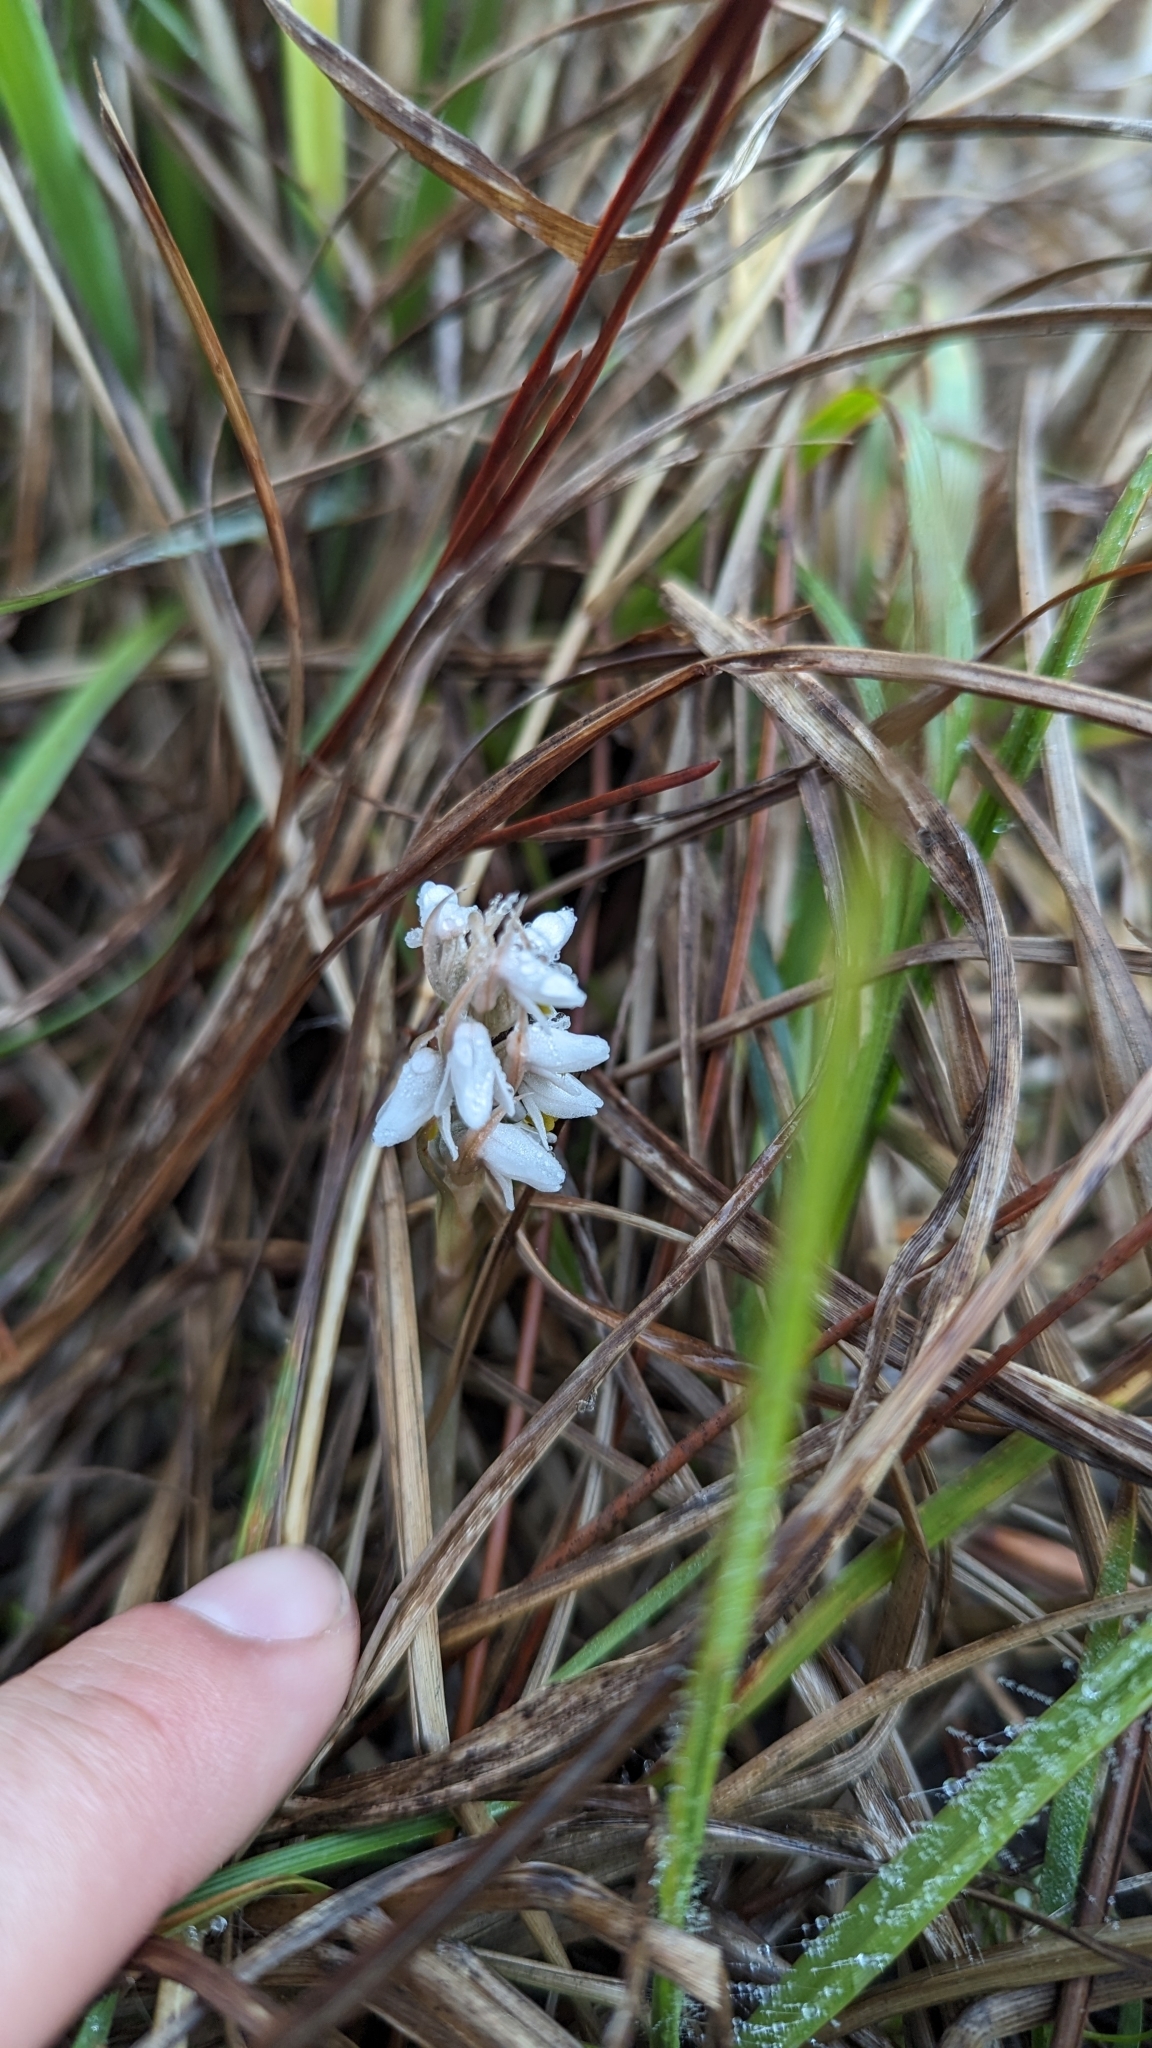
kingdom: Plantae
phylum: Tracheophyta
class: Liliopsida
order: Asparagales
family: Orchidaceae
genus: Zeuxine
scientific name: Zeuxine strateumatica
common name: Soldier's orchid
